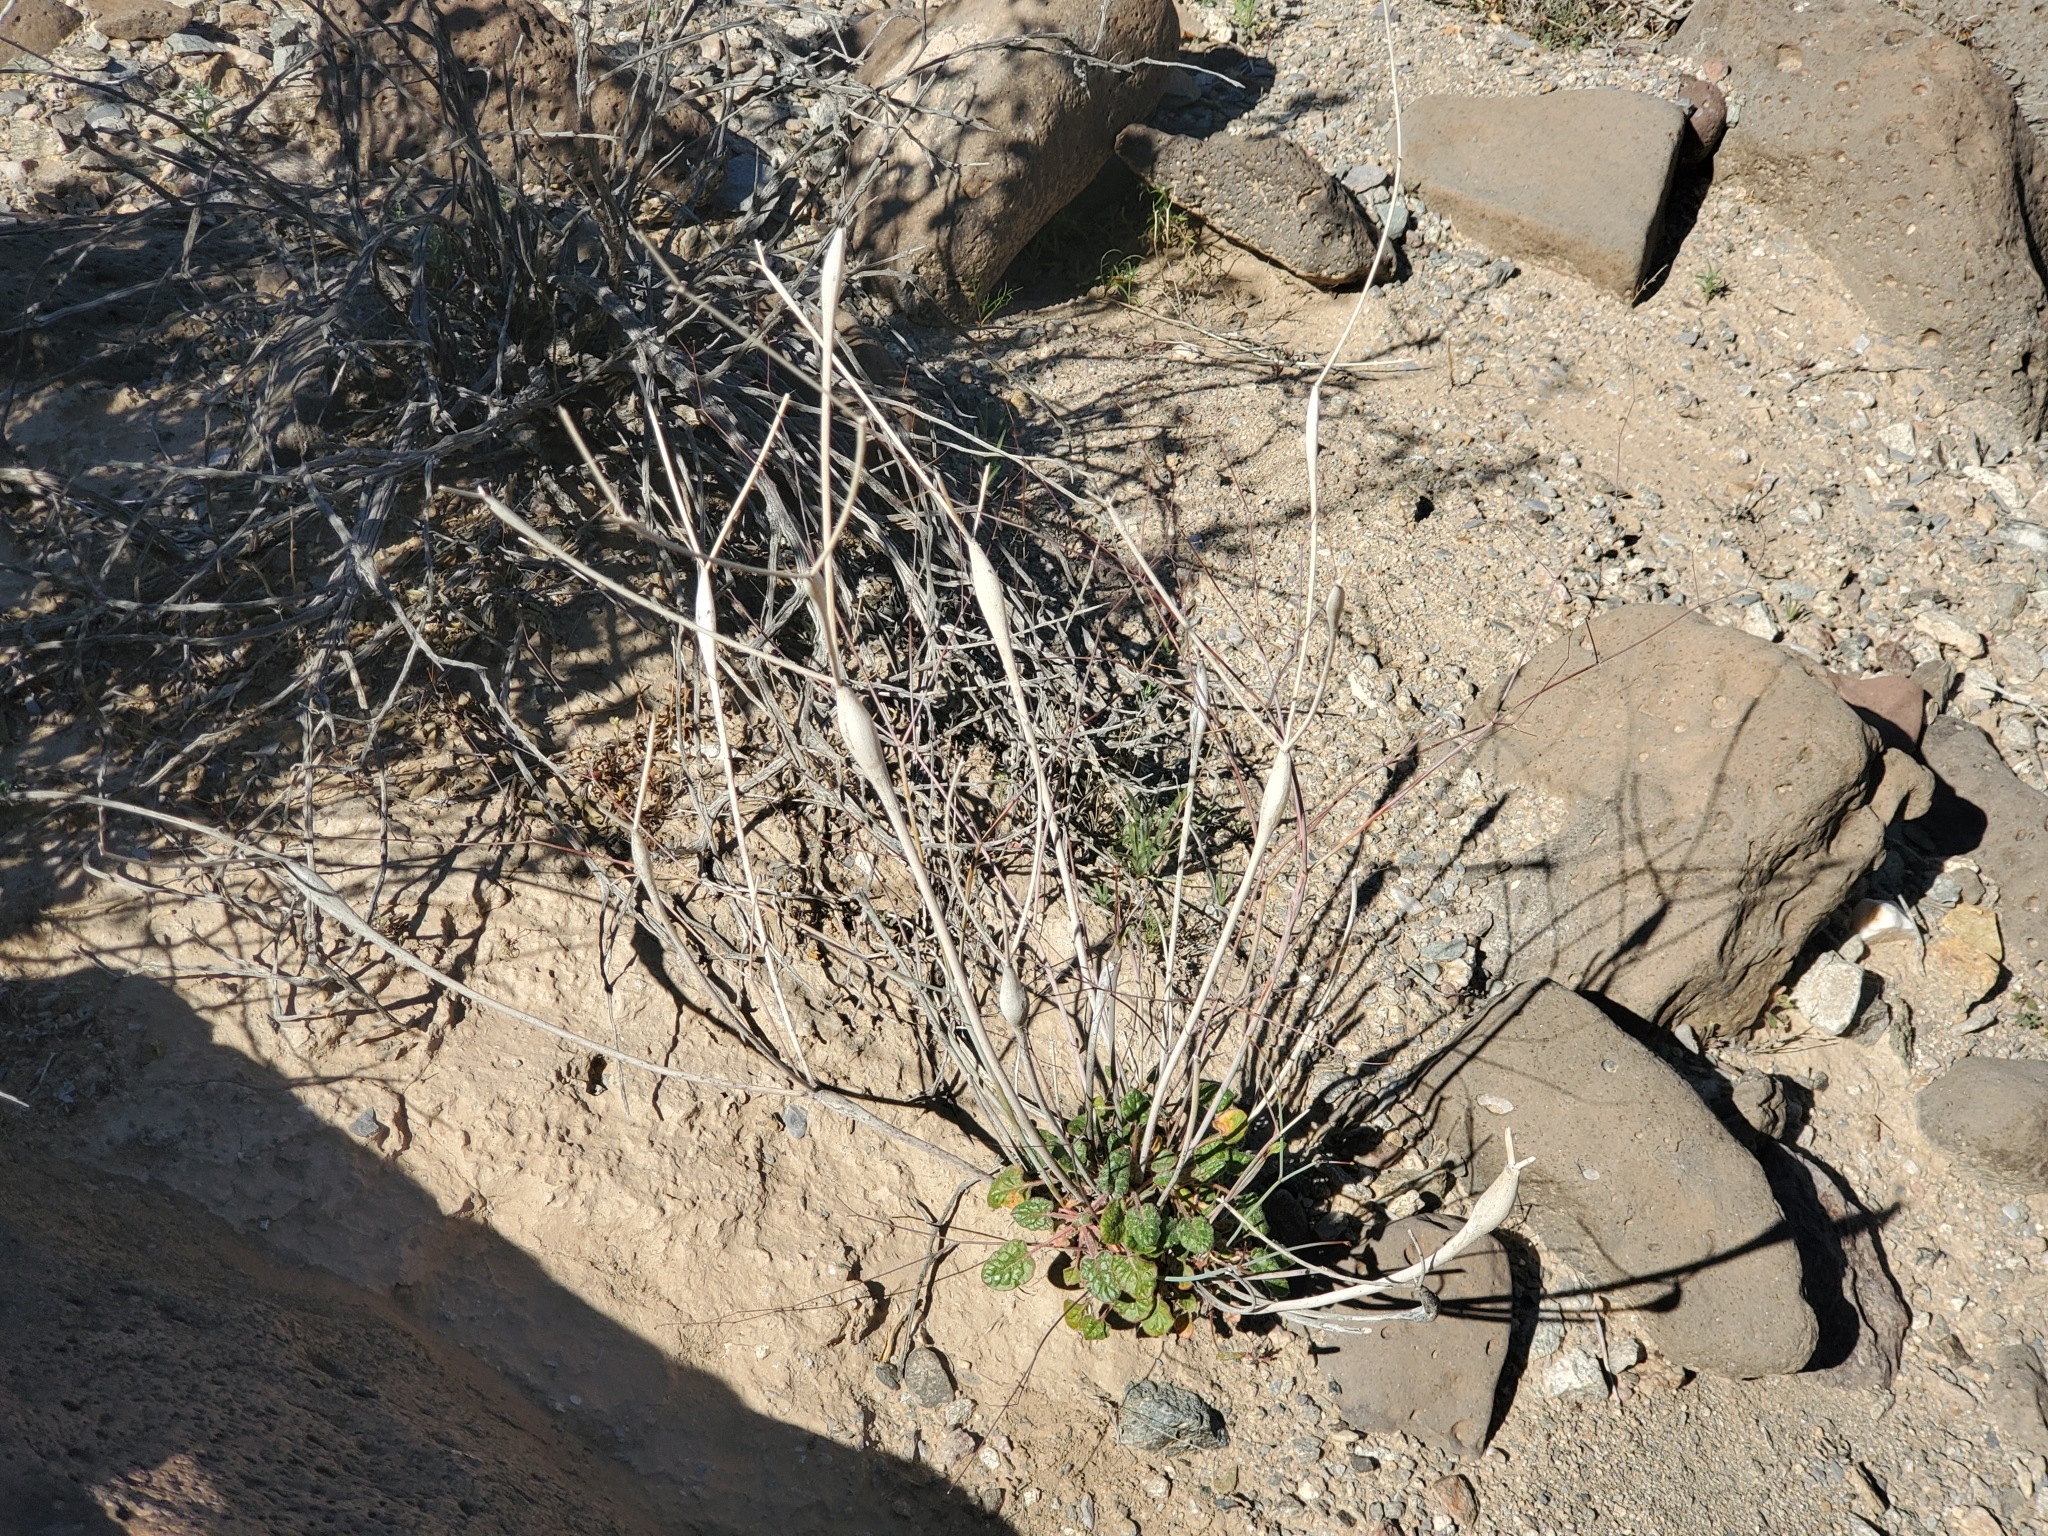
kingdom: Plantae
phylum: Tracheophyta
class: Magnoliopsida
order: Caryophyllales
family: Polygonaceae
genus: Eriogonum
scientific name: Eriogonum inflatum
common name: Desert trumpet
